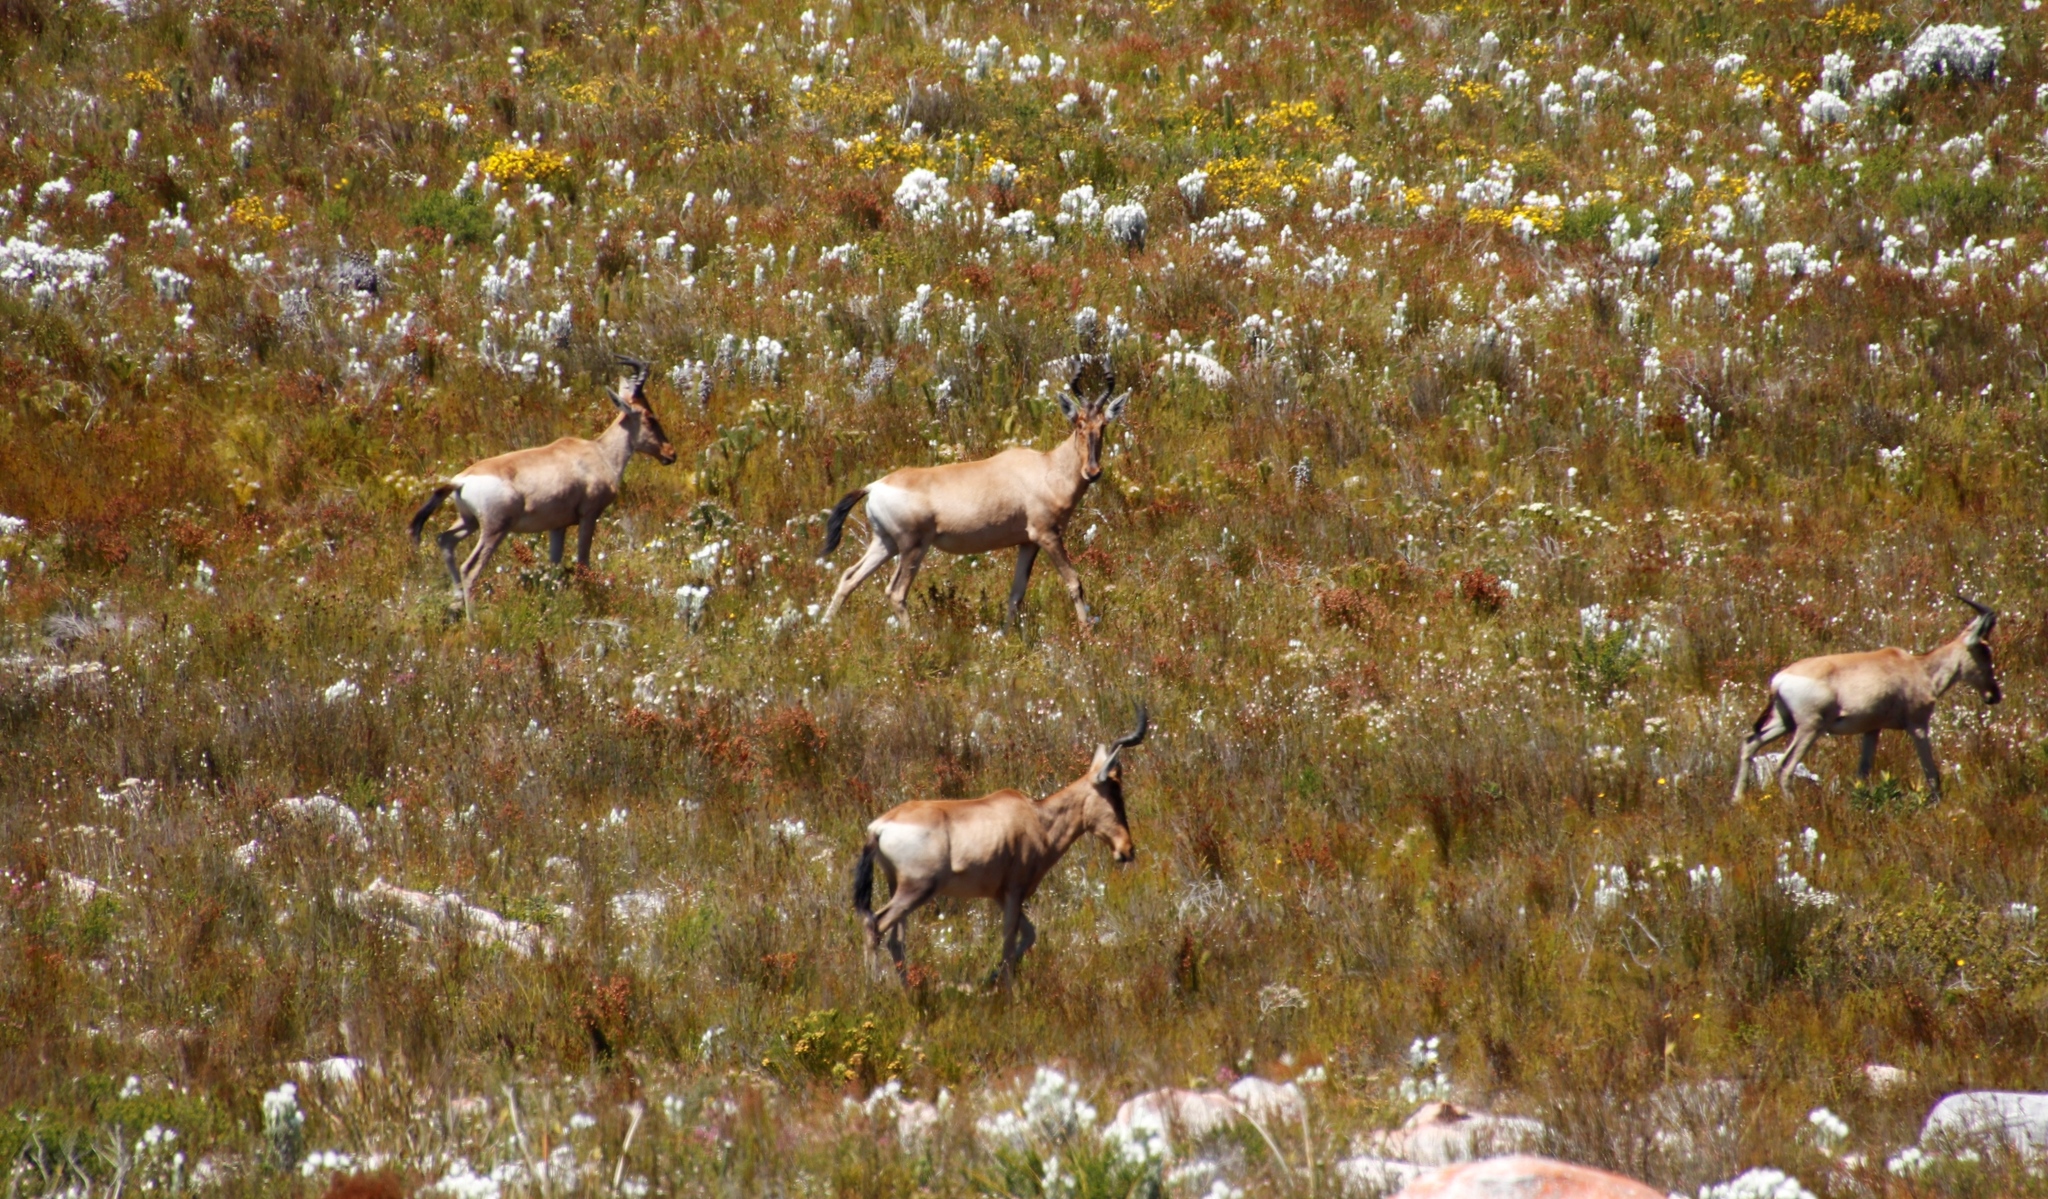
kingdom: Animalia
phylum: Chordata
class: Mammalia
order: Artiodactyla
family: Bovidae
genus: Alcelaphus
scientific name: Alcelaphus caama
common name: Red hartebeest
